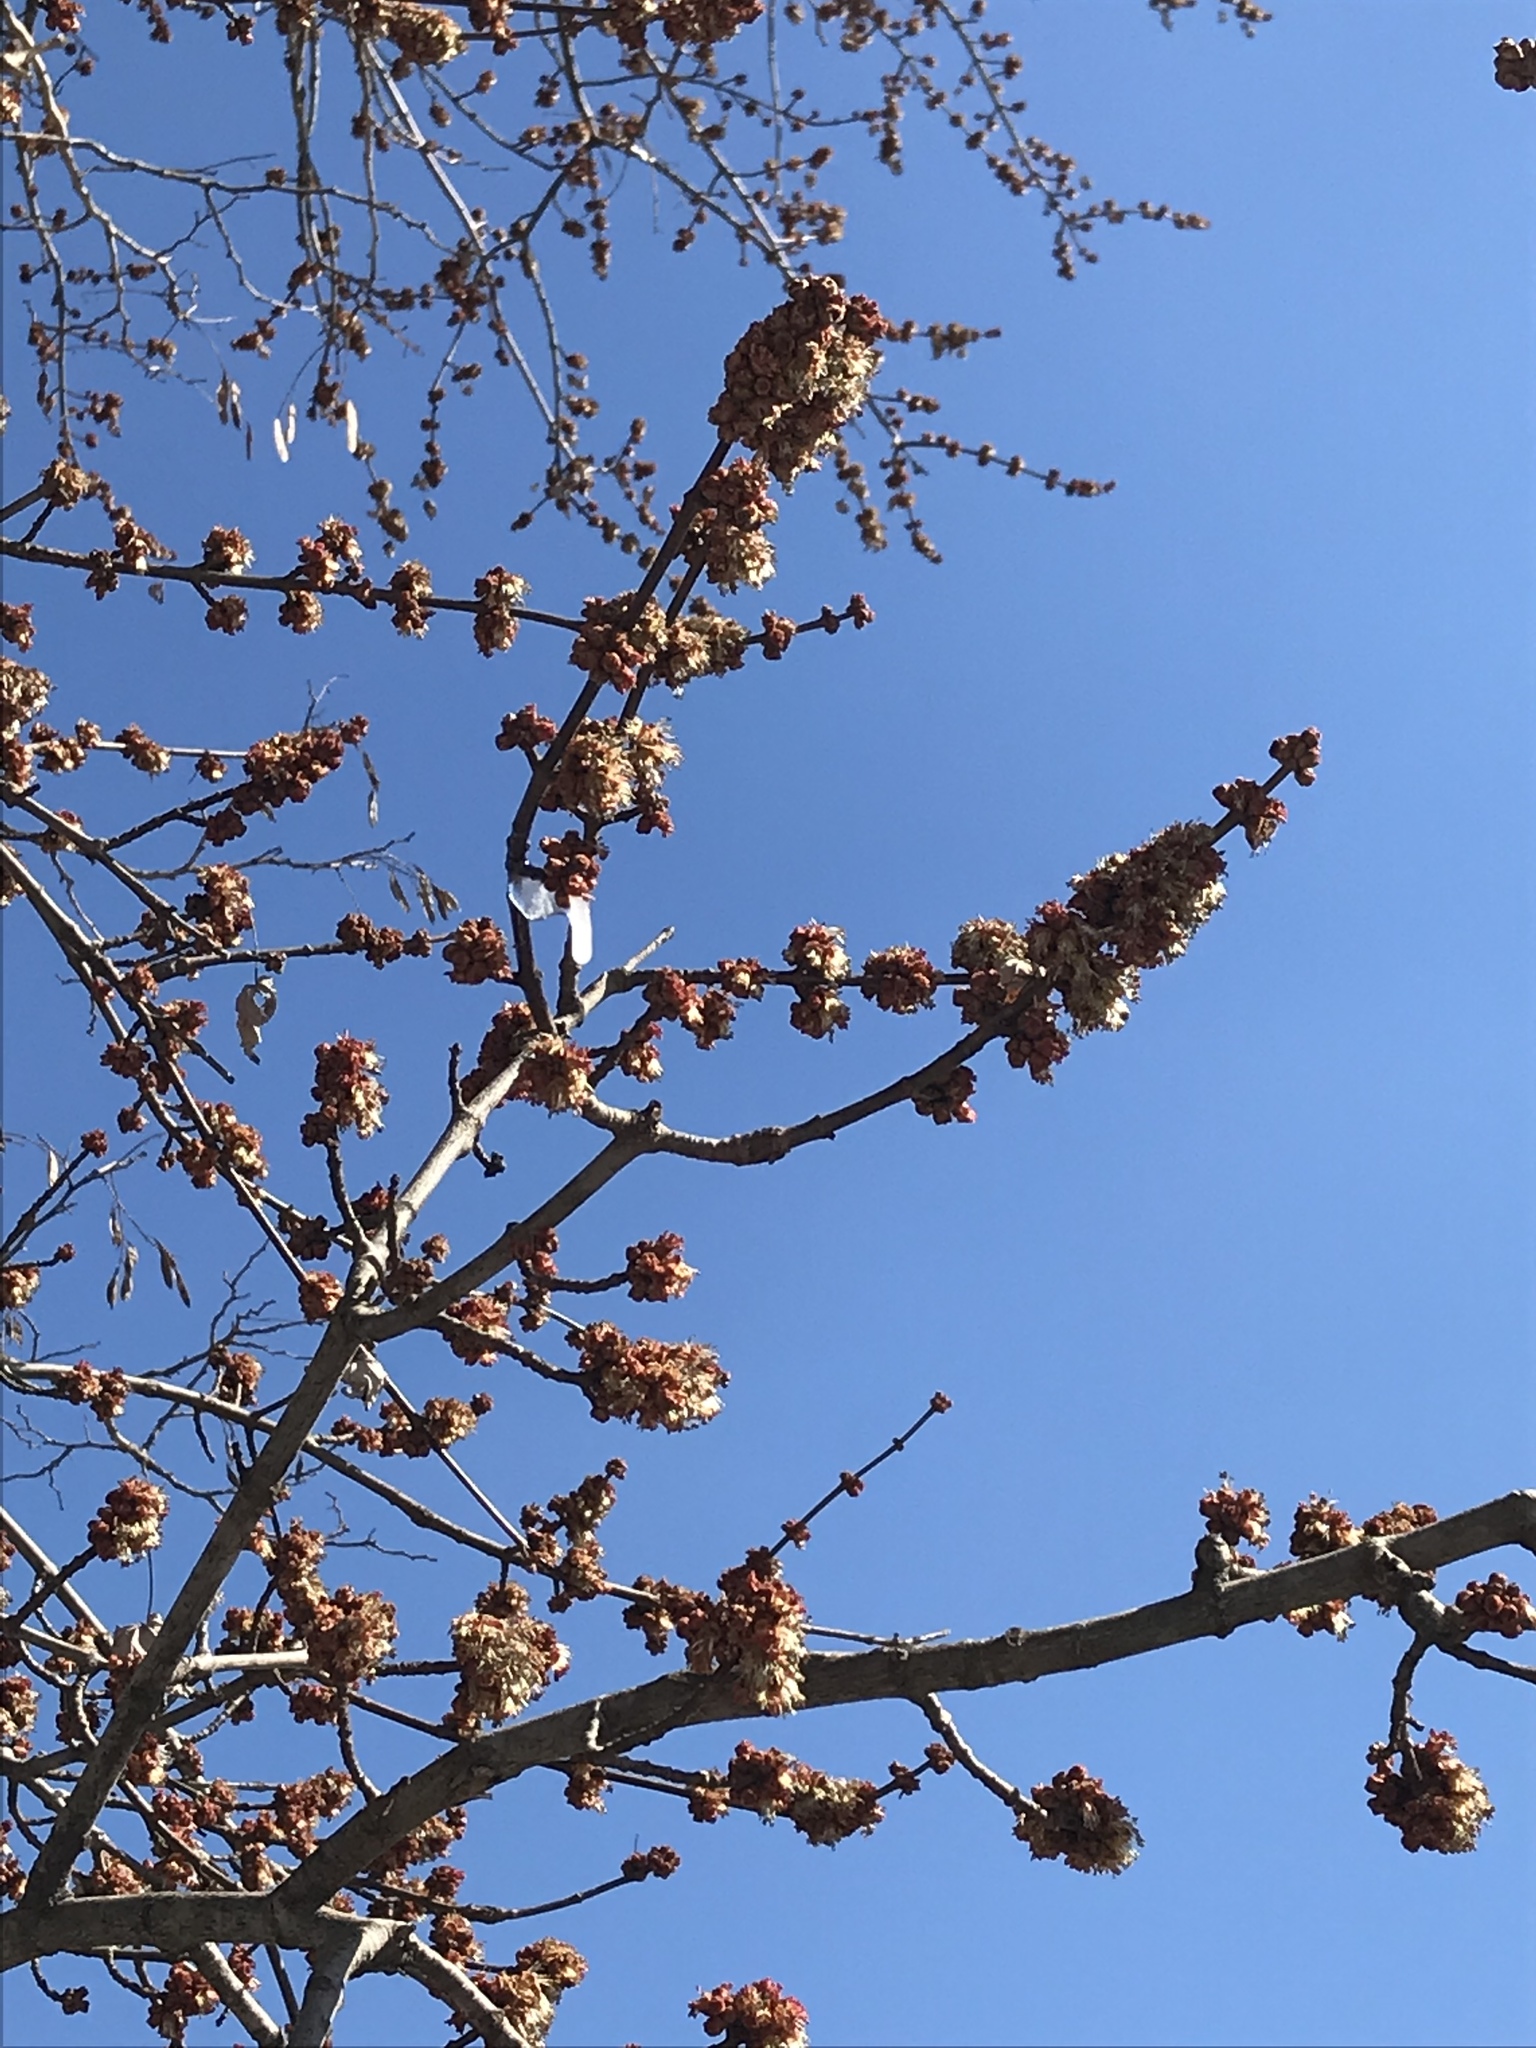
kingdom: Plantae
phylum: Tracheophyta
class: Magnoliopsida
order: Sapindales
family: Sapindaceae
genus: Acer
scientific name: Acer saccharinum
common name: Silver maple
